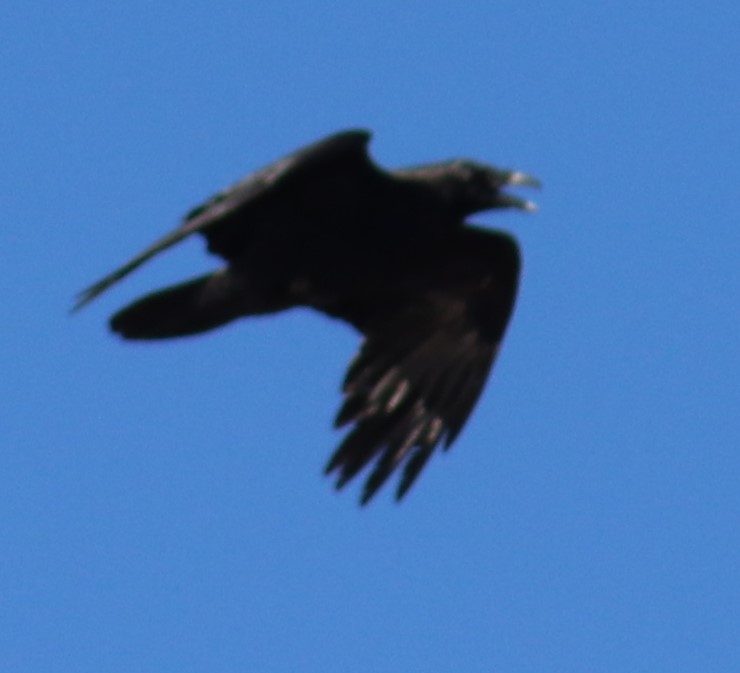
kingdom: Animalia
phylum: Chordata
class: Aves
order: Passeriformes
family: Corvidae
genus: Corvus
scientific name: Corvus brachyrhynchos
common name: American crow
